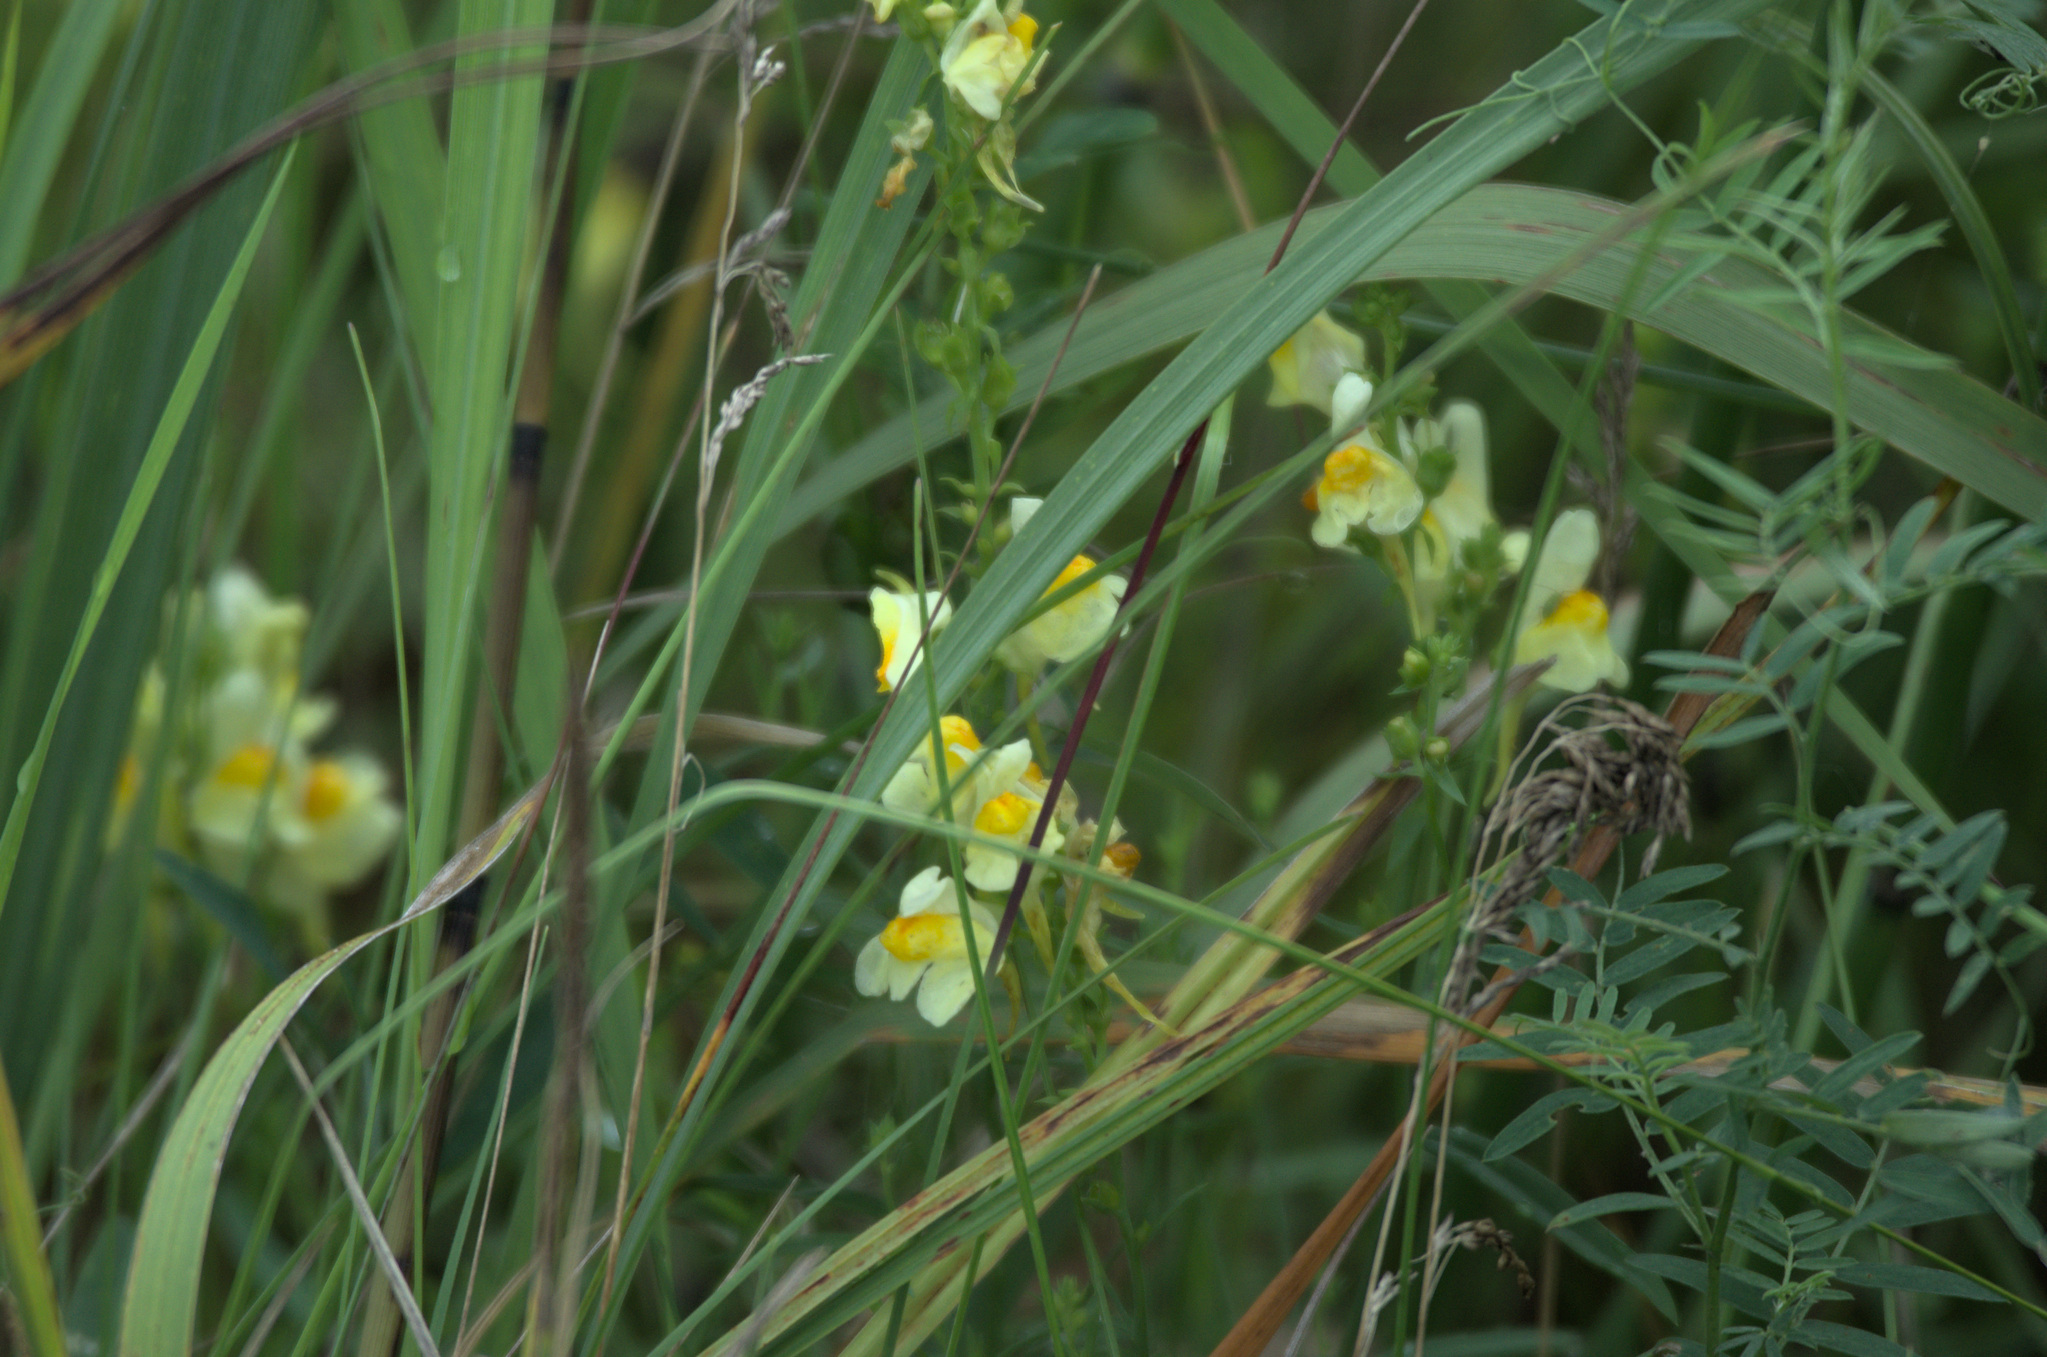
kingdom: Plantae
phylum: Tracheophyta
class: Magnoliopsida
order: Lamiales
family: Plantaginaceae
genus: Linaria
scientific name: Linaria vulgaris
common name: Butter and eggs
